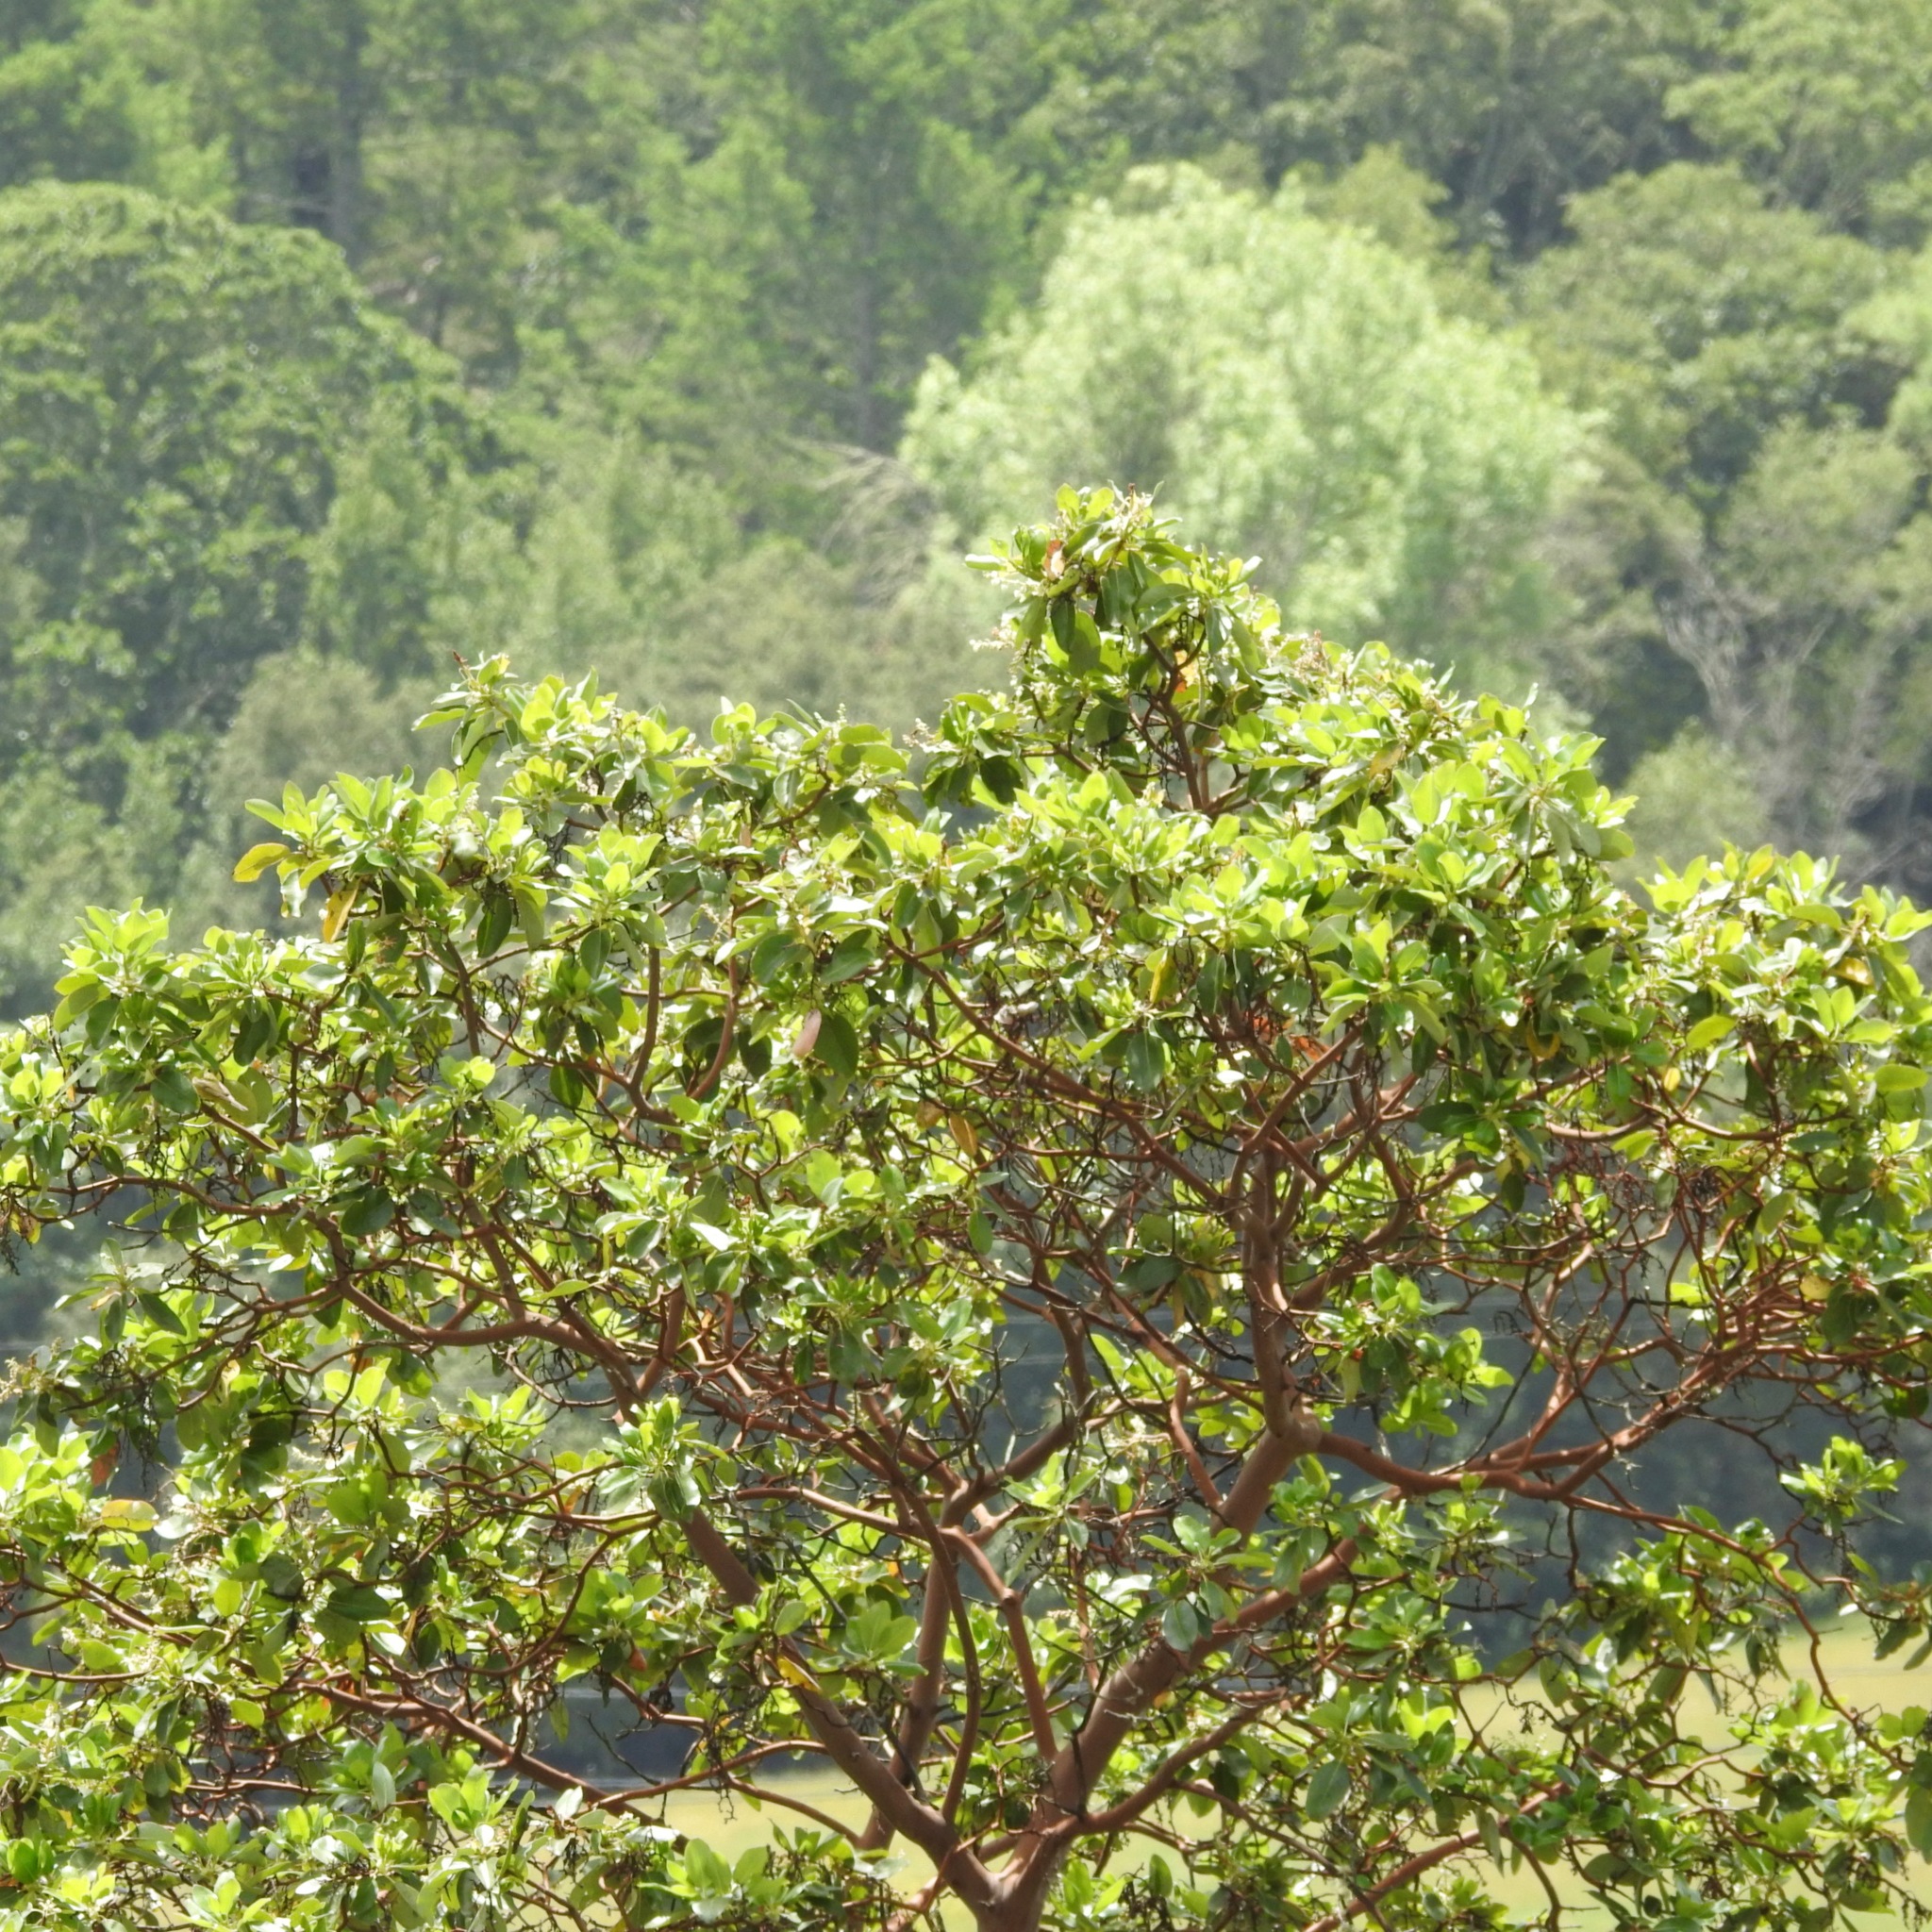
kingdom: Plantae
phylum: Tracheophyta
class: Magnoliopsida
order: Ericales
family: Ericaceae
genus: Arbutus
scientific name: Arbutus menziesii
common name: Pacific madrone
